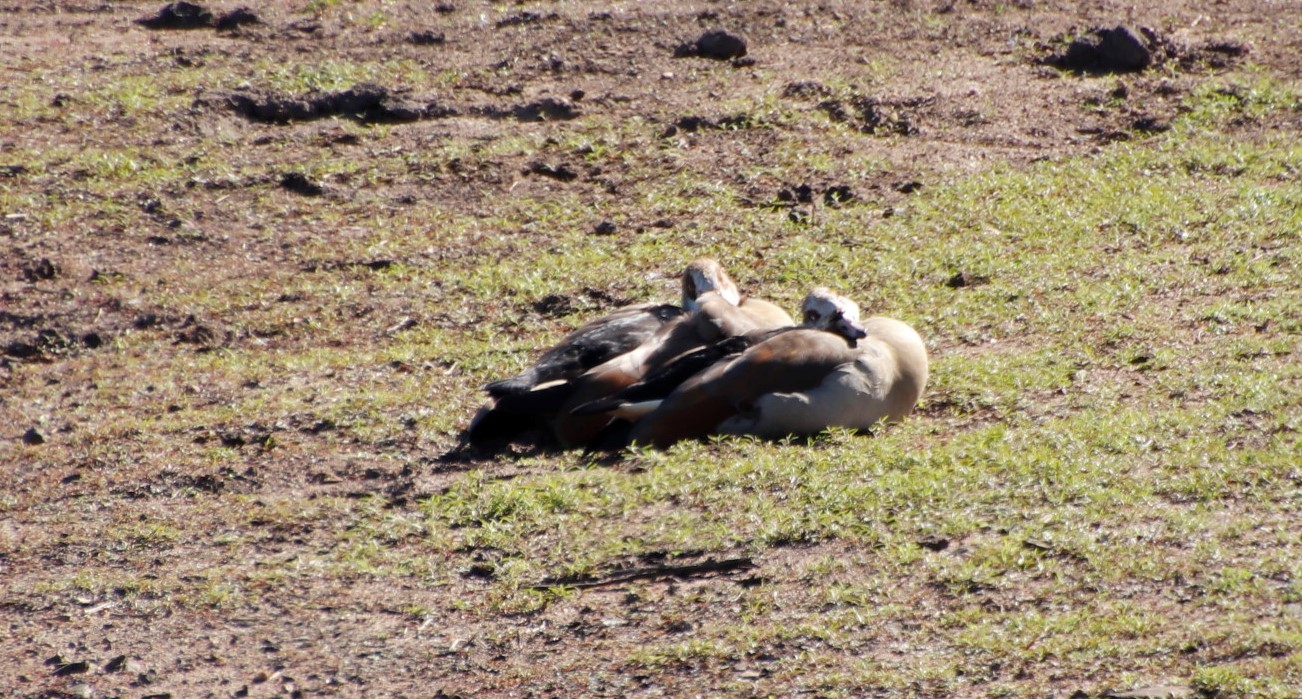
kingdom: Animalia
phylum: Chordata
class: Aves
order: Anseriformes
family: Anatidae
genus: Alopochen
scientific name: Alopochen aegyptiaca
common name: Egyptian goose
